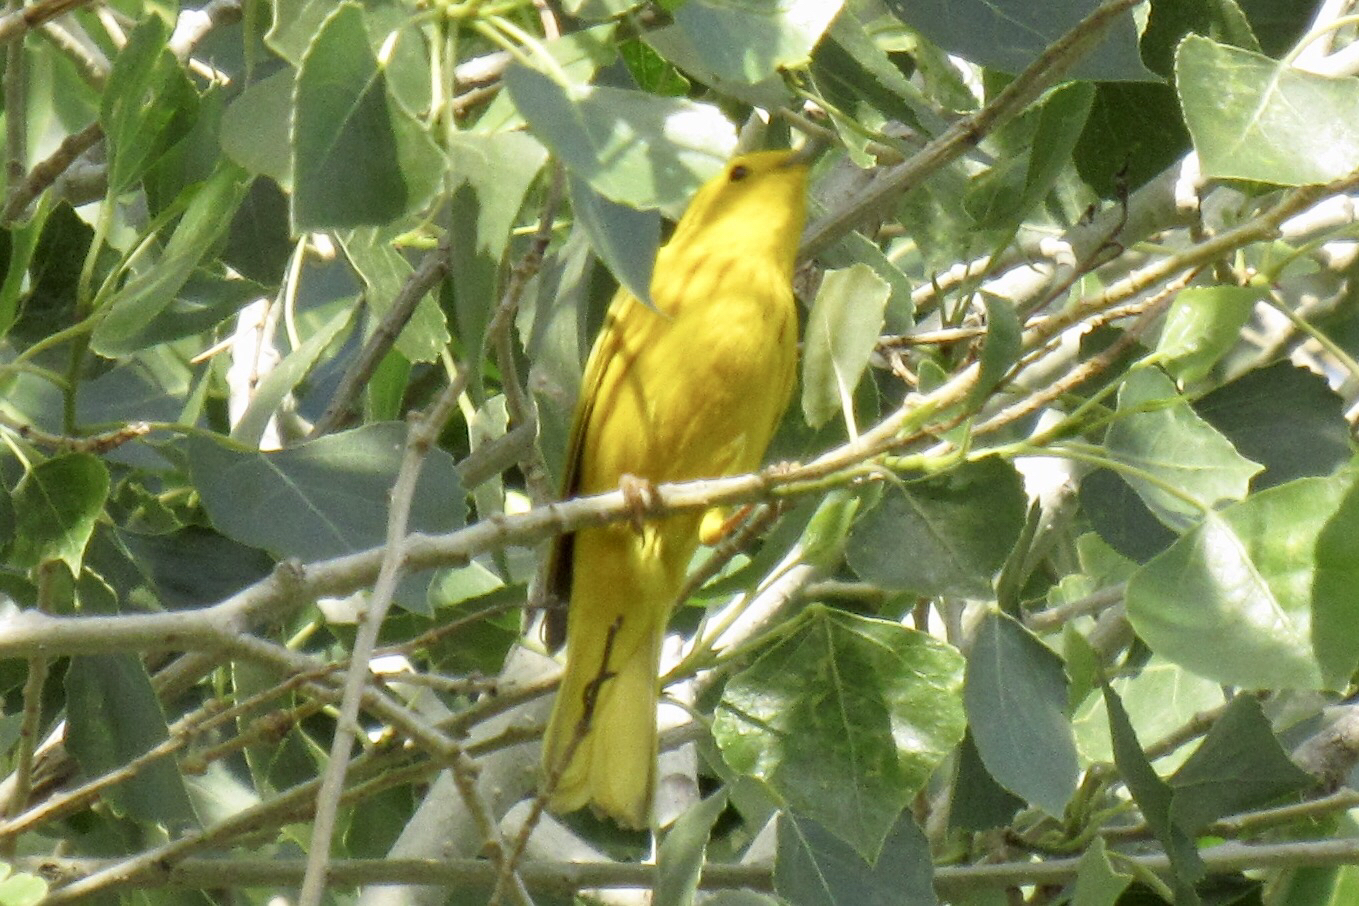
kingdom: Animalia
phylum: Chordata
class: Aves
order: Passeriformes
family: Parulidae
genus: Setophaga
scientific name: Setophaga petechia
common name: Yellow warbler
